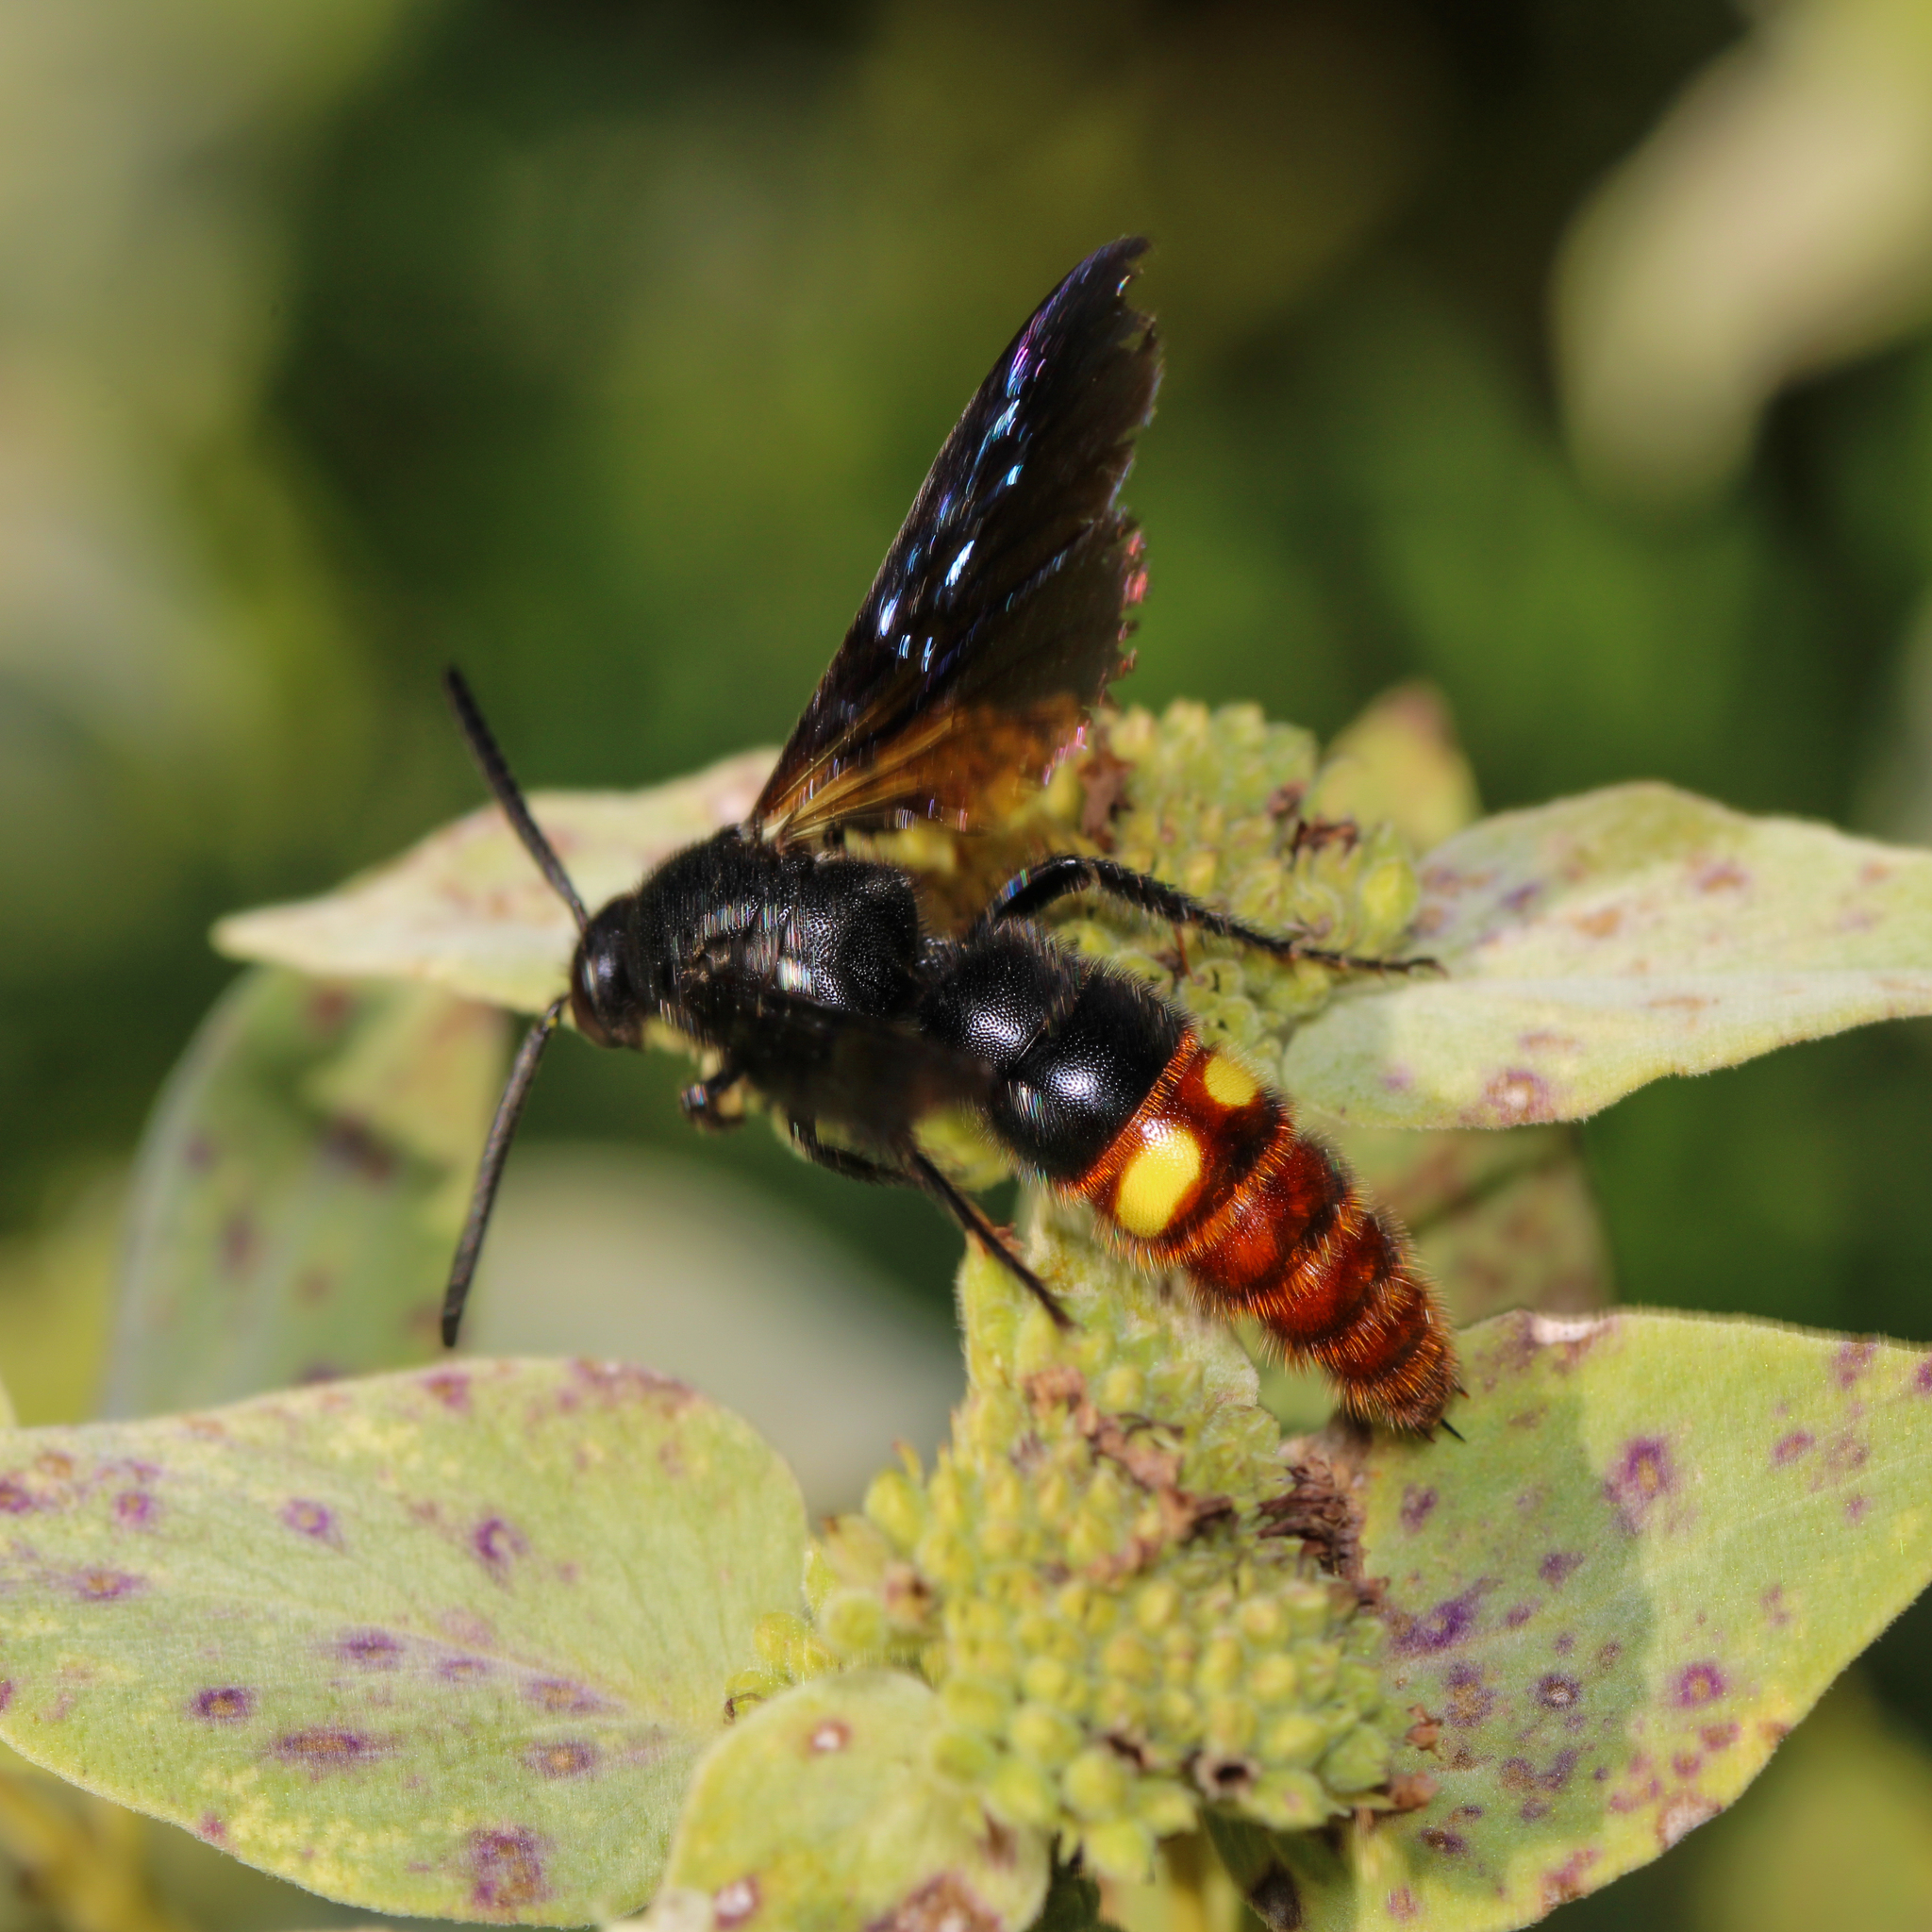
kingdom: Animalia
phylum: Arthropoda
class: Insecta
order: Hymenoptera
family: Scoliidae
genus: Scolia
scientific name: Scolia dubia
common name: Blue-winged scoliid wasp
